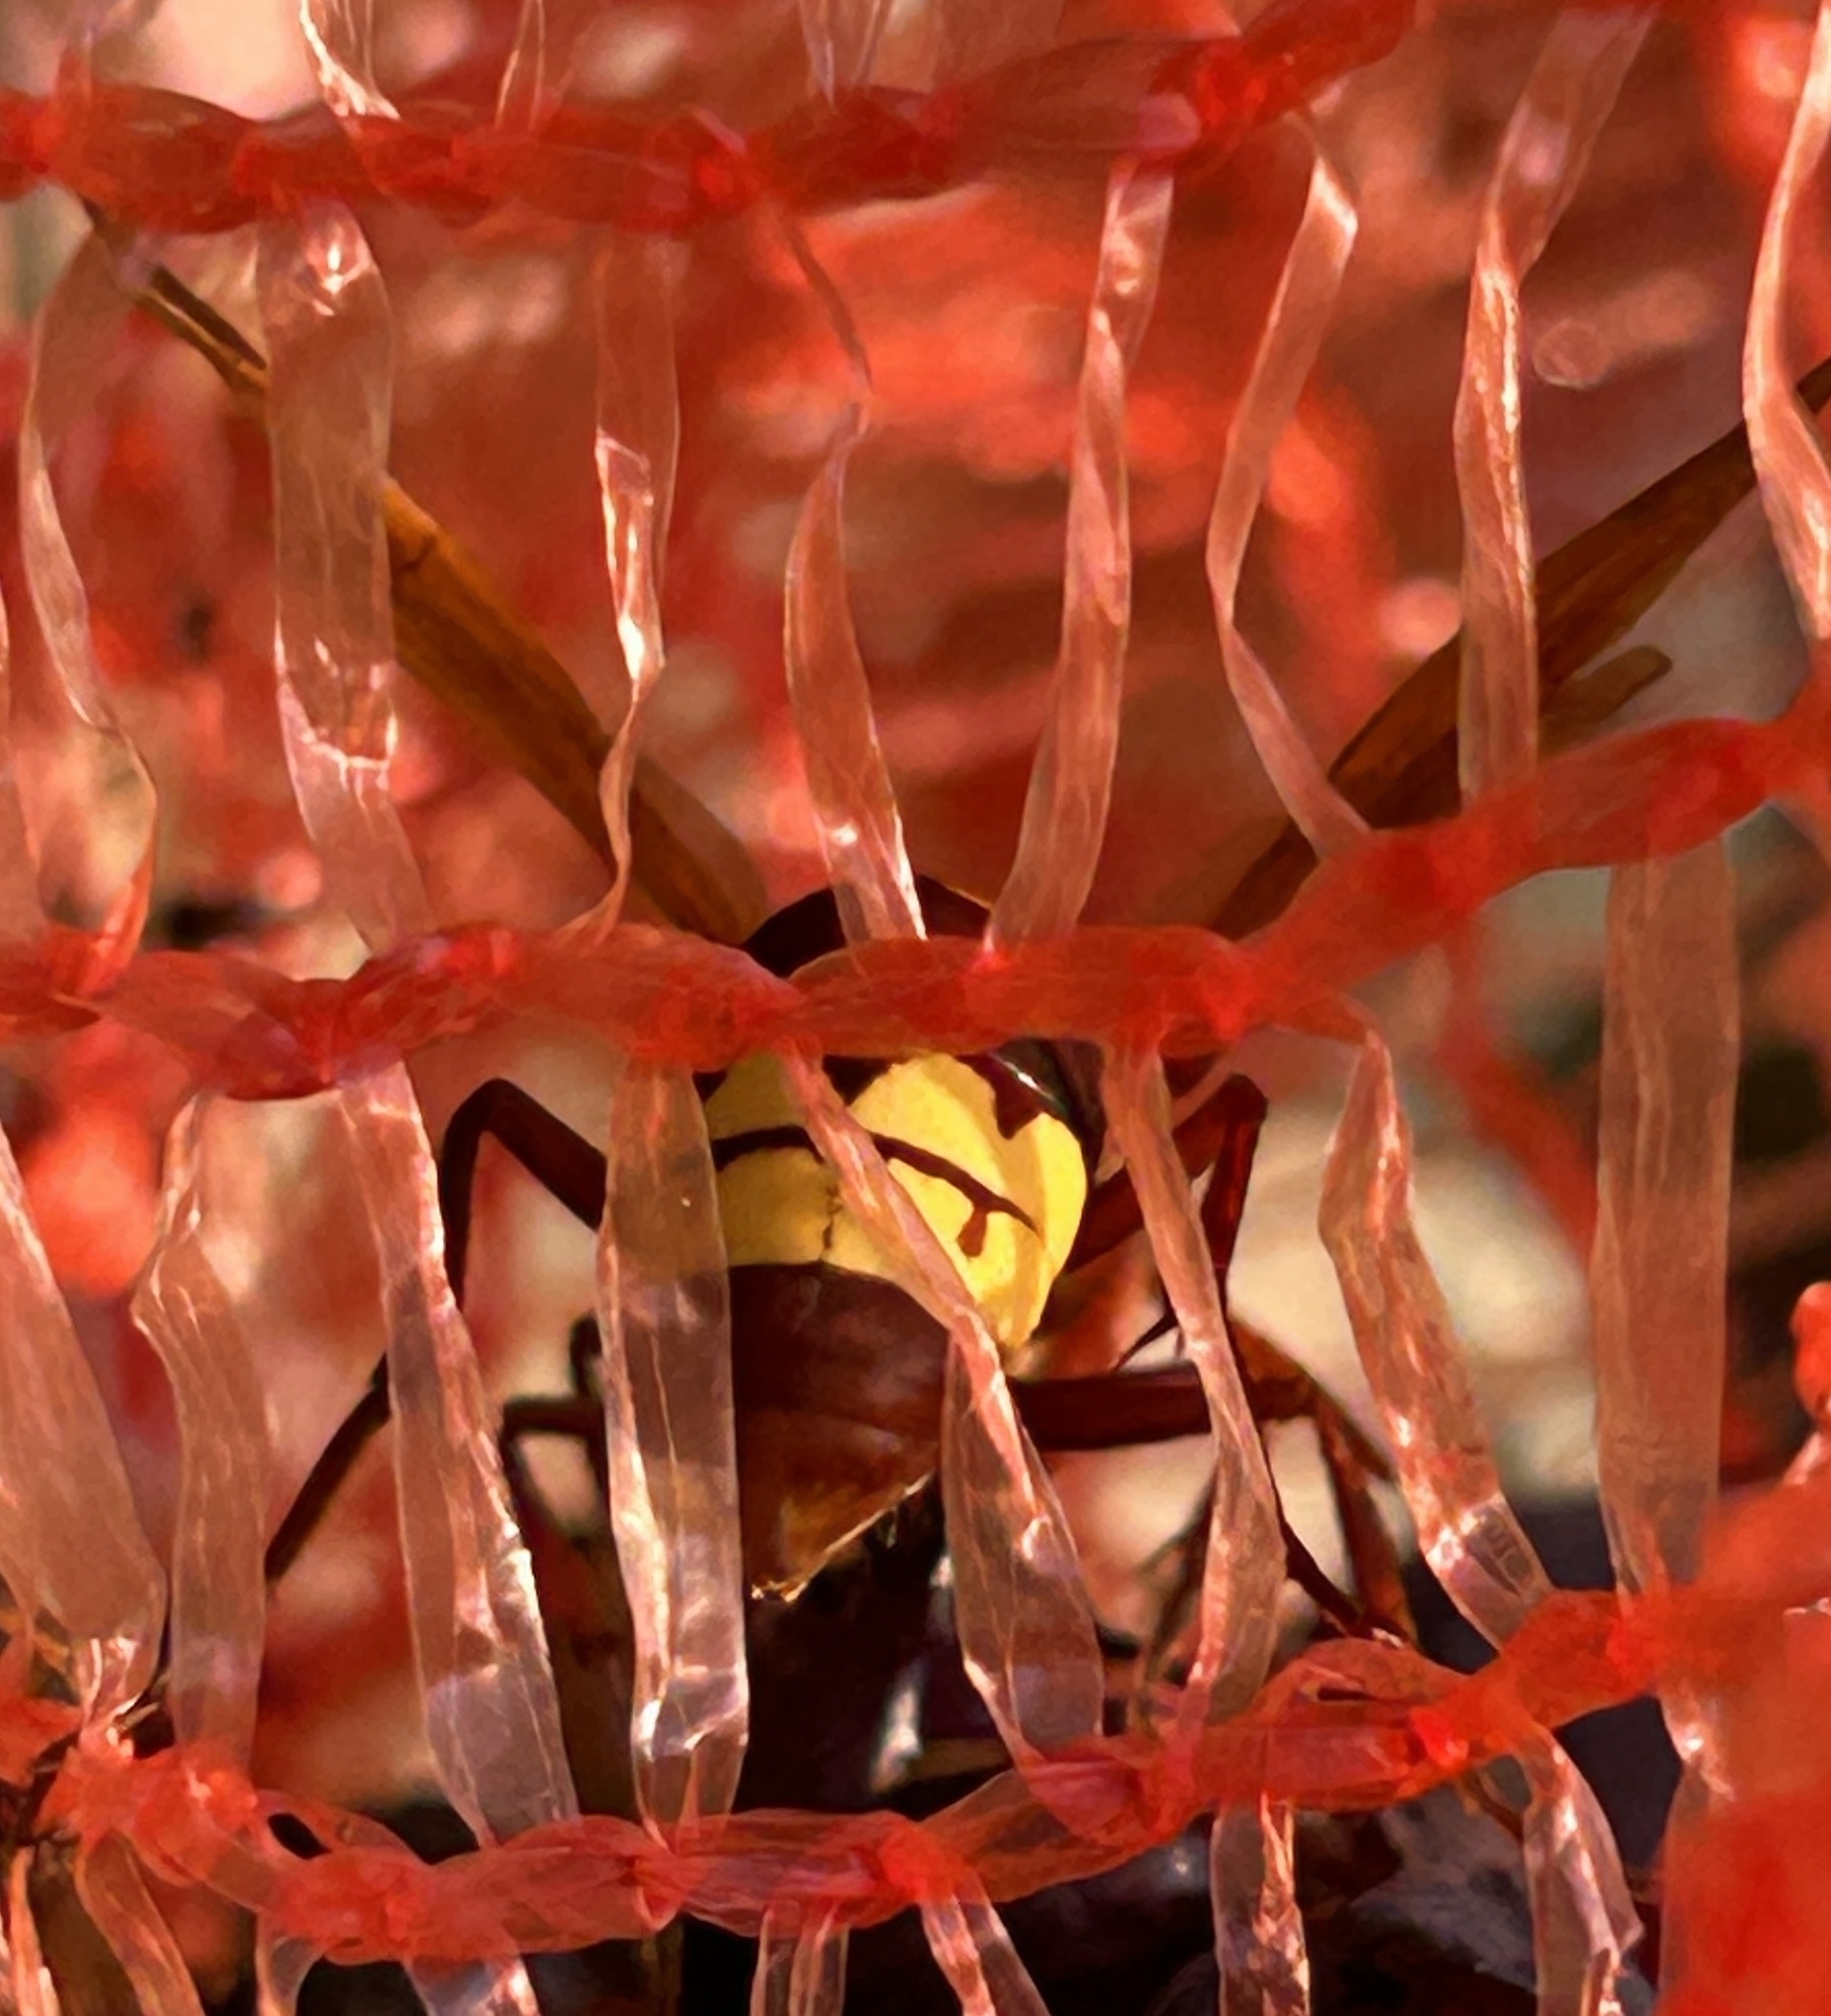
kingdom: Animalia
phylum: Arthropoda
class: Insecta
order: Hymenoptera
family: Vespidae
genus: Vespa
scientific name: Vespa orientalis
